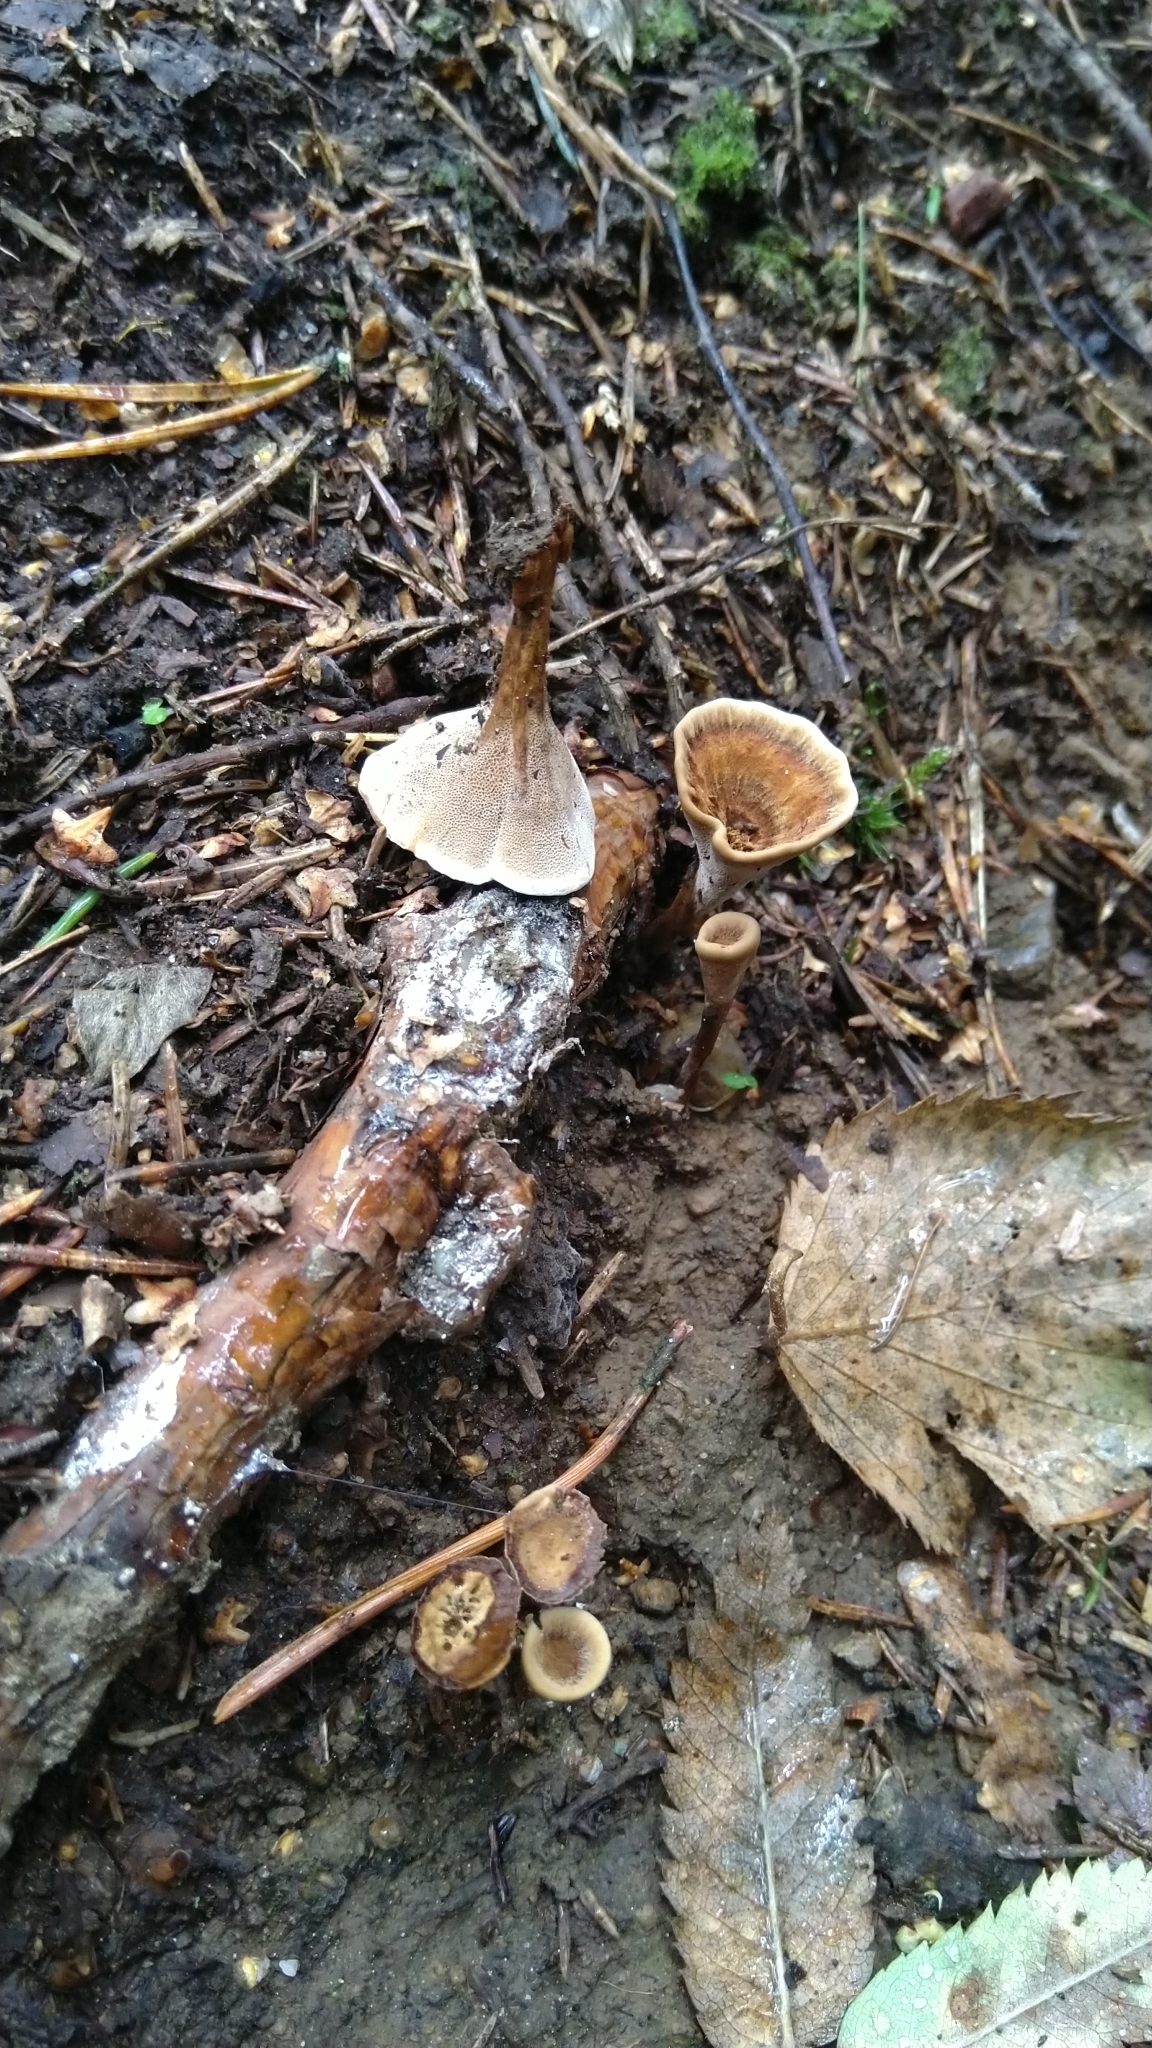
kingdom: Fungi
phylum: Basidiomycota
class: Agaricomycetes
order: Hymenochaetales
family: Hymenochaetaceae
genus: Coltricia
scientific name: Coltricia
